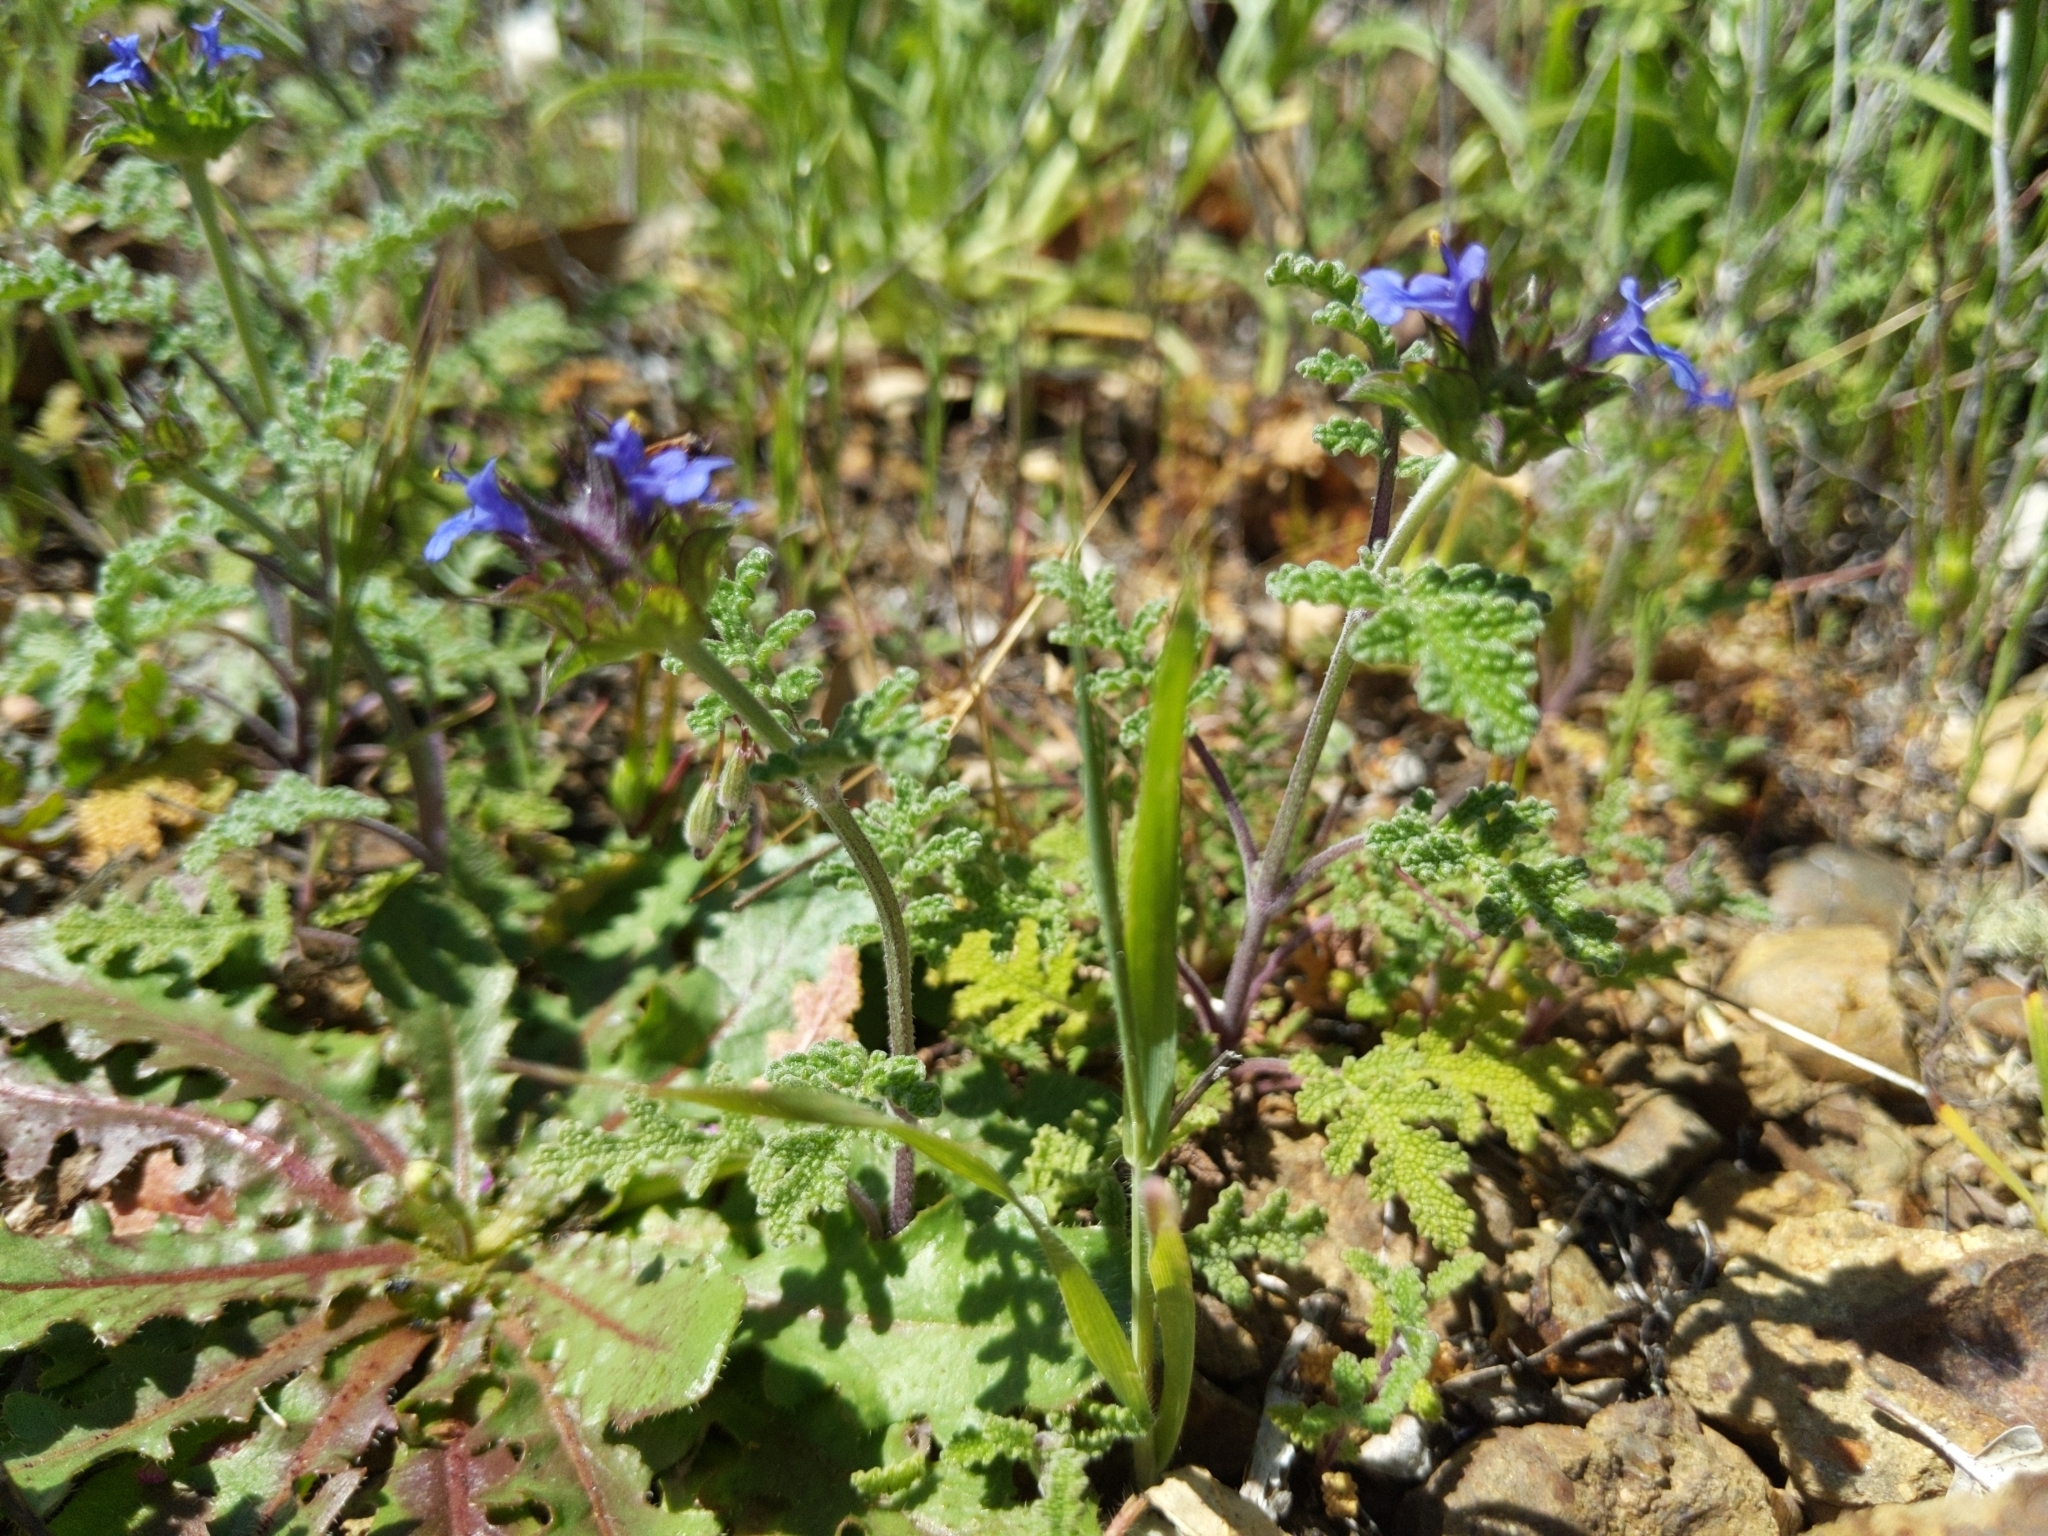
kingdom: Plantae
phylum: Tracheophyta
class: Magnoliopsida
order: Lamiales
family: Lamiaceae
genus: Salvia
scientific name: Salvia columbariae
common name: Chia
